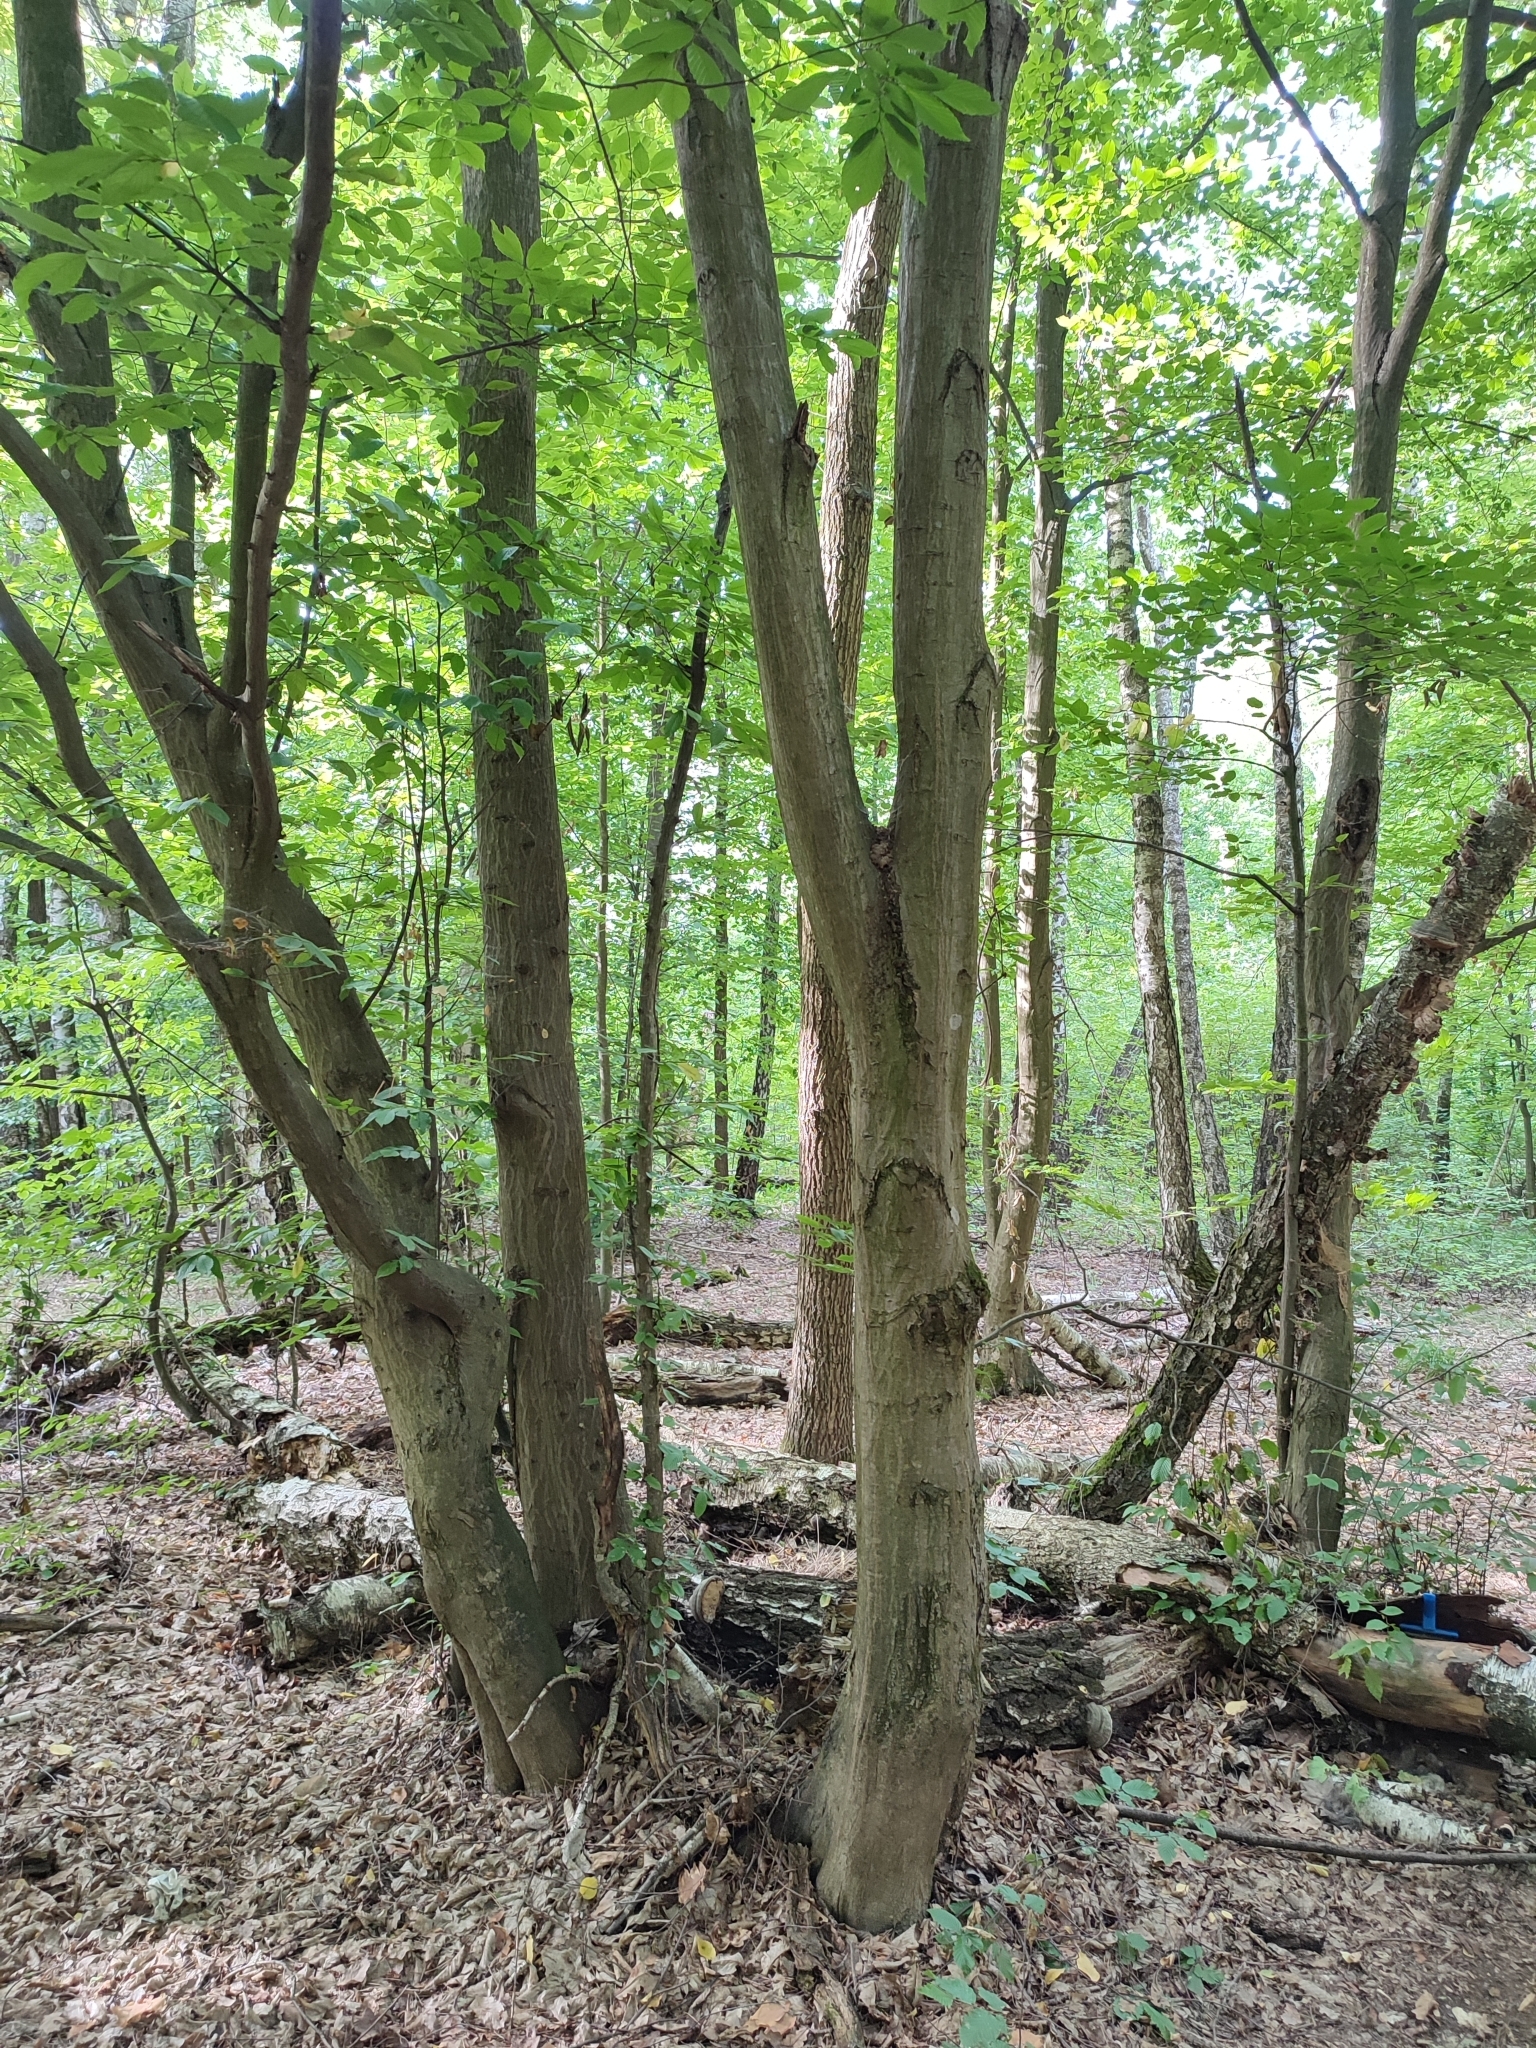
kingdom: Plantae
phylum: Tracheophyta
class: Magnoliopsida
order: Fagales
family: Betulaceae
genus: Carpinus
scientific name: Carpinus betulus
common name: Hornbeam
